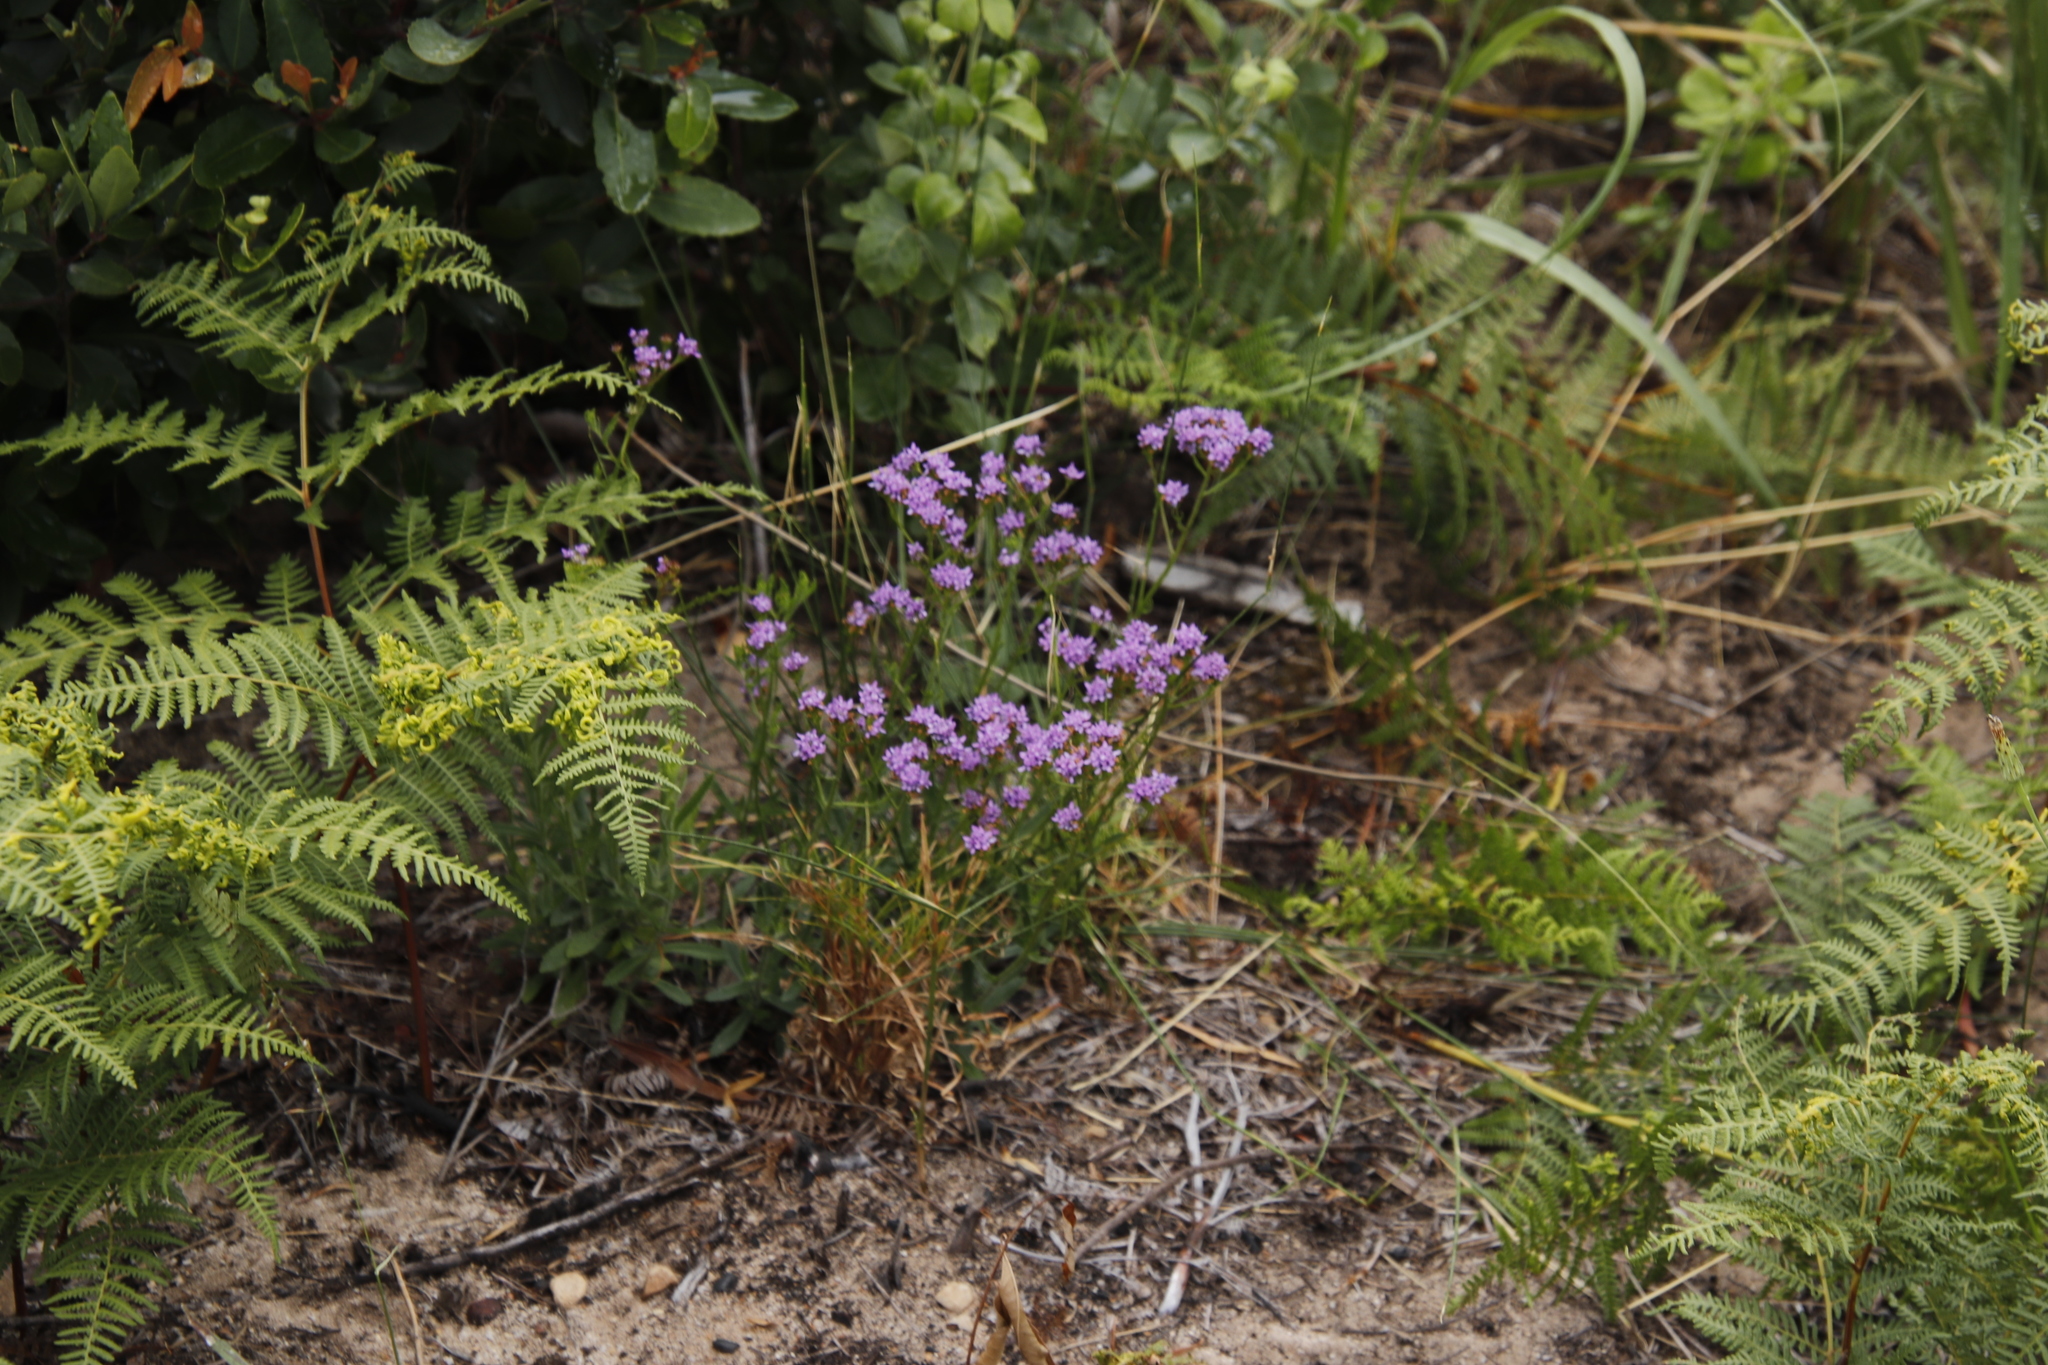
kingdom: Plantae
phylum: Tracheophyta
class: Magnoliopsida
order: Lamiales
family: Scrophulariaceae
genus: Pseudoselago
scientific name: Pseudoselago verbenacea
